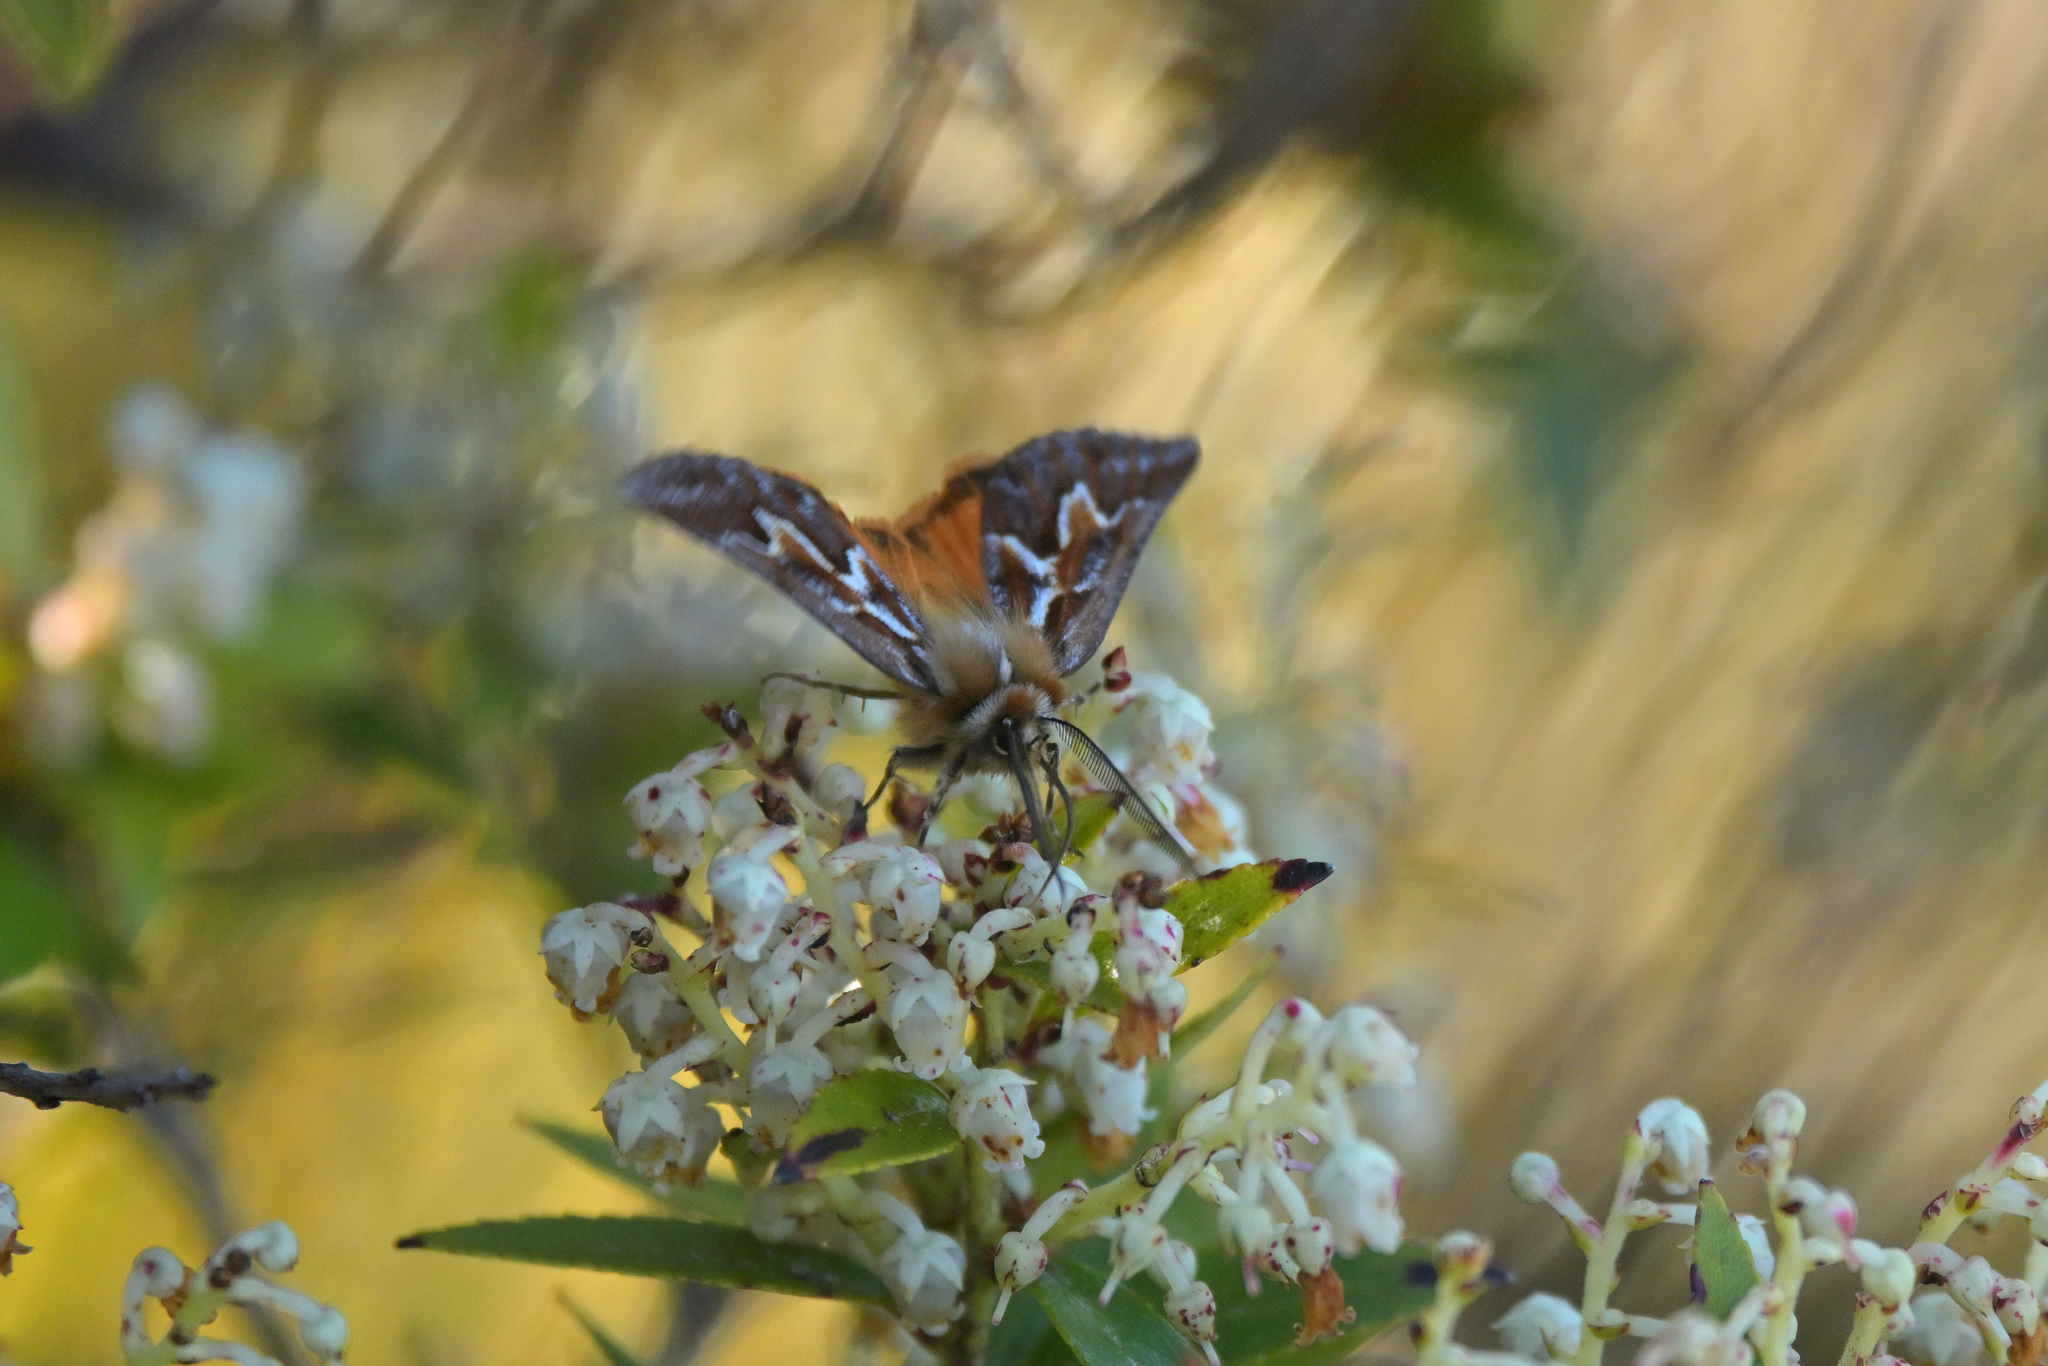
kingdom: Animalia
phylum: Arthropoda
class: Insecta
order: Lepidoptera
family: Geometridae
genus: Declana
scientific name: Declana
